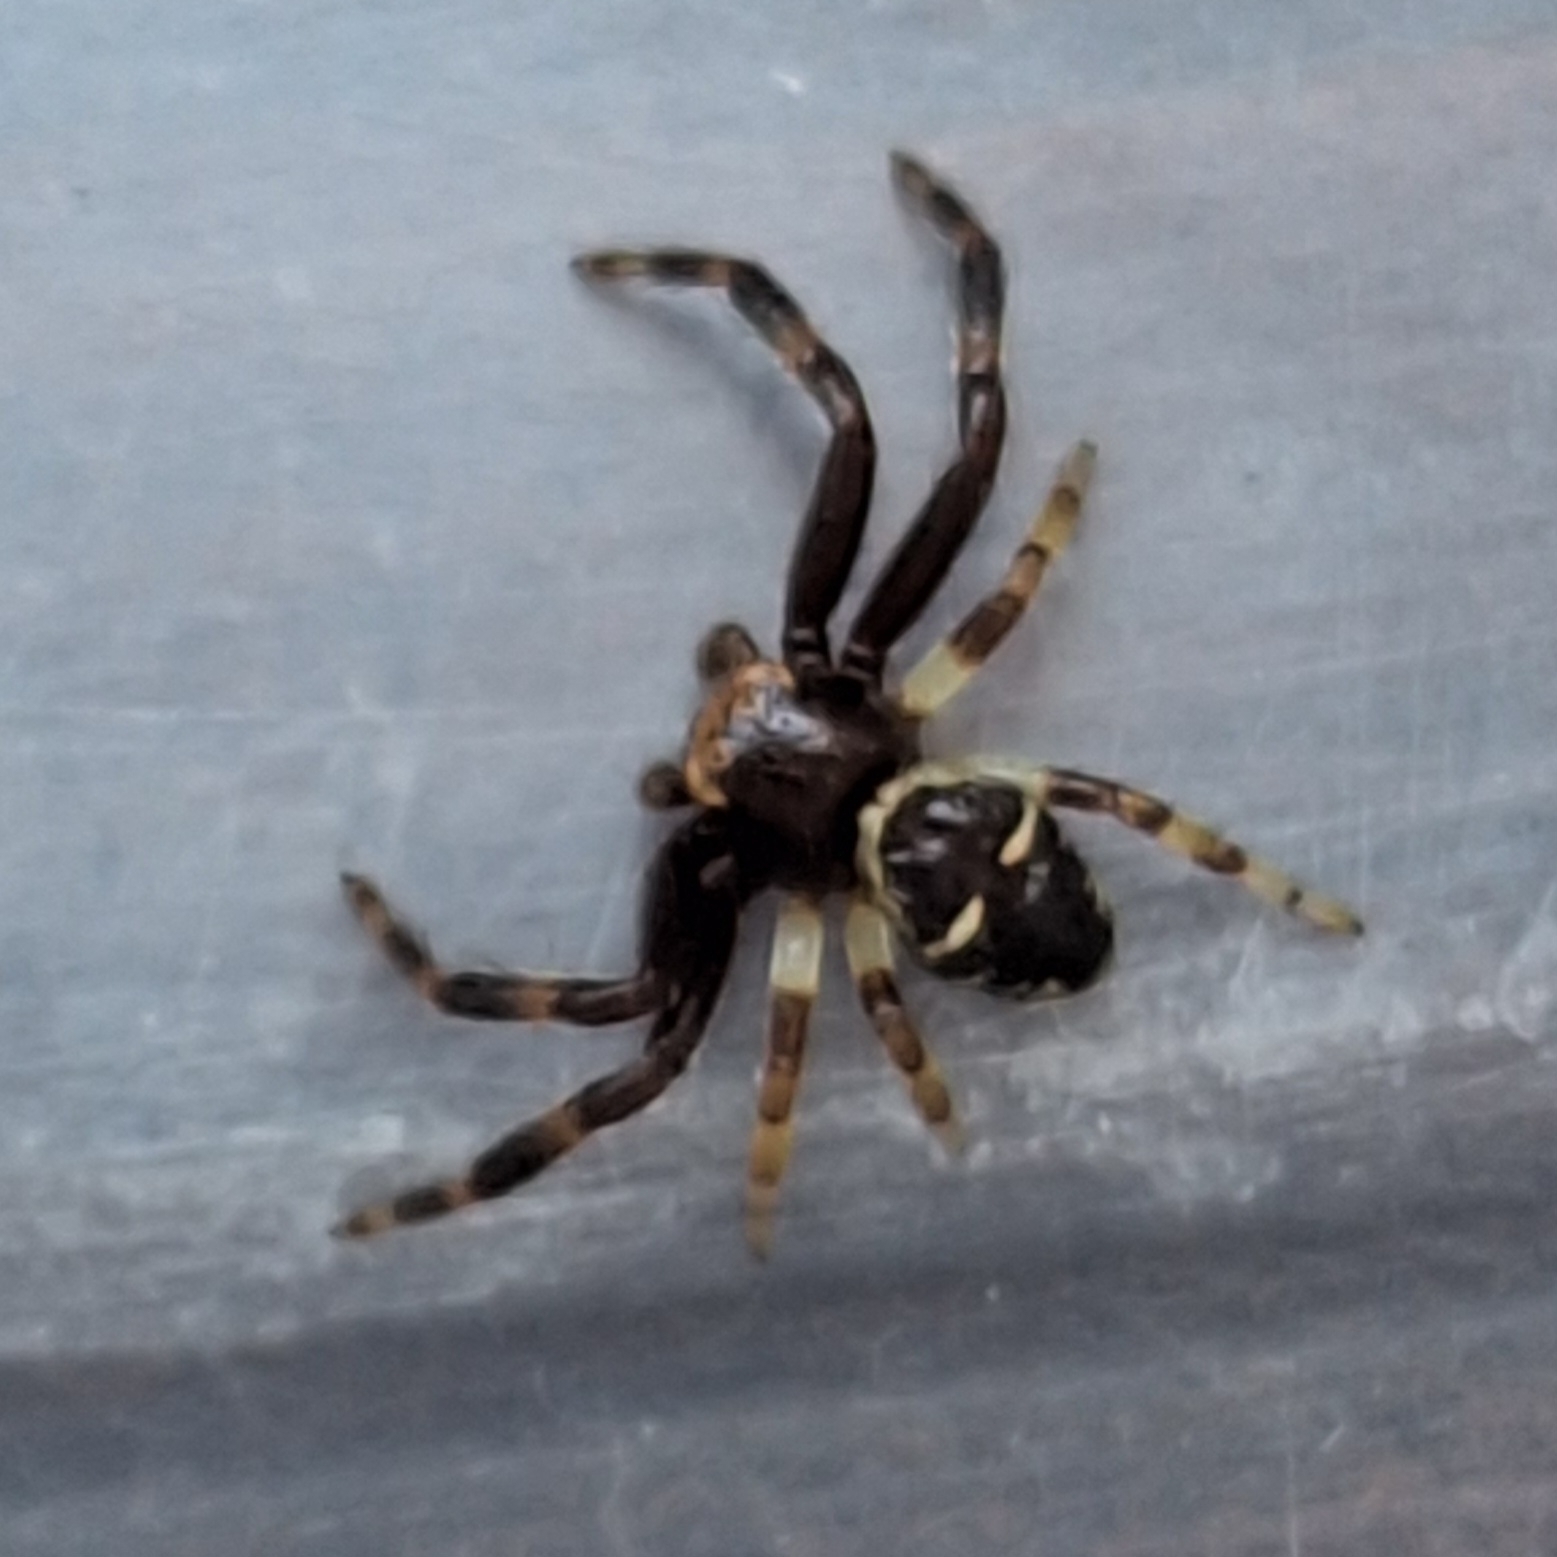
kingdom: Animalia
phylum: Arthropoda
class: Arachnida
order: Araneae
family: Thomisidae
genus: Synema
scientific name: Synema globosum
